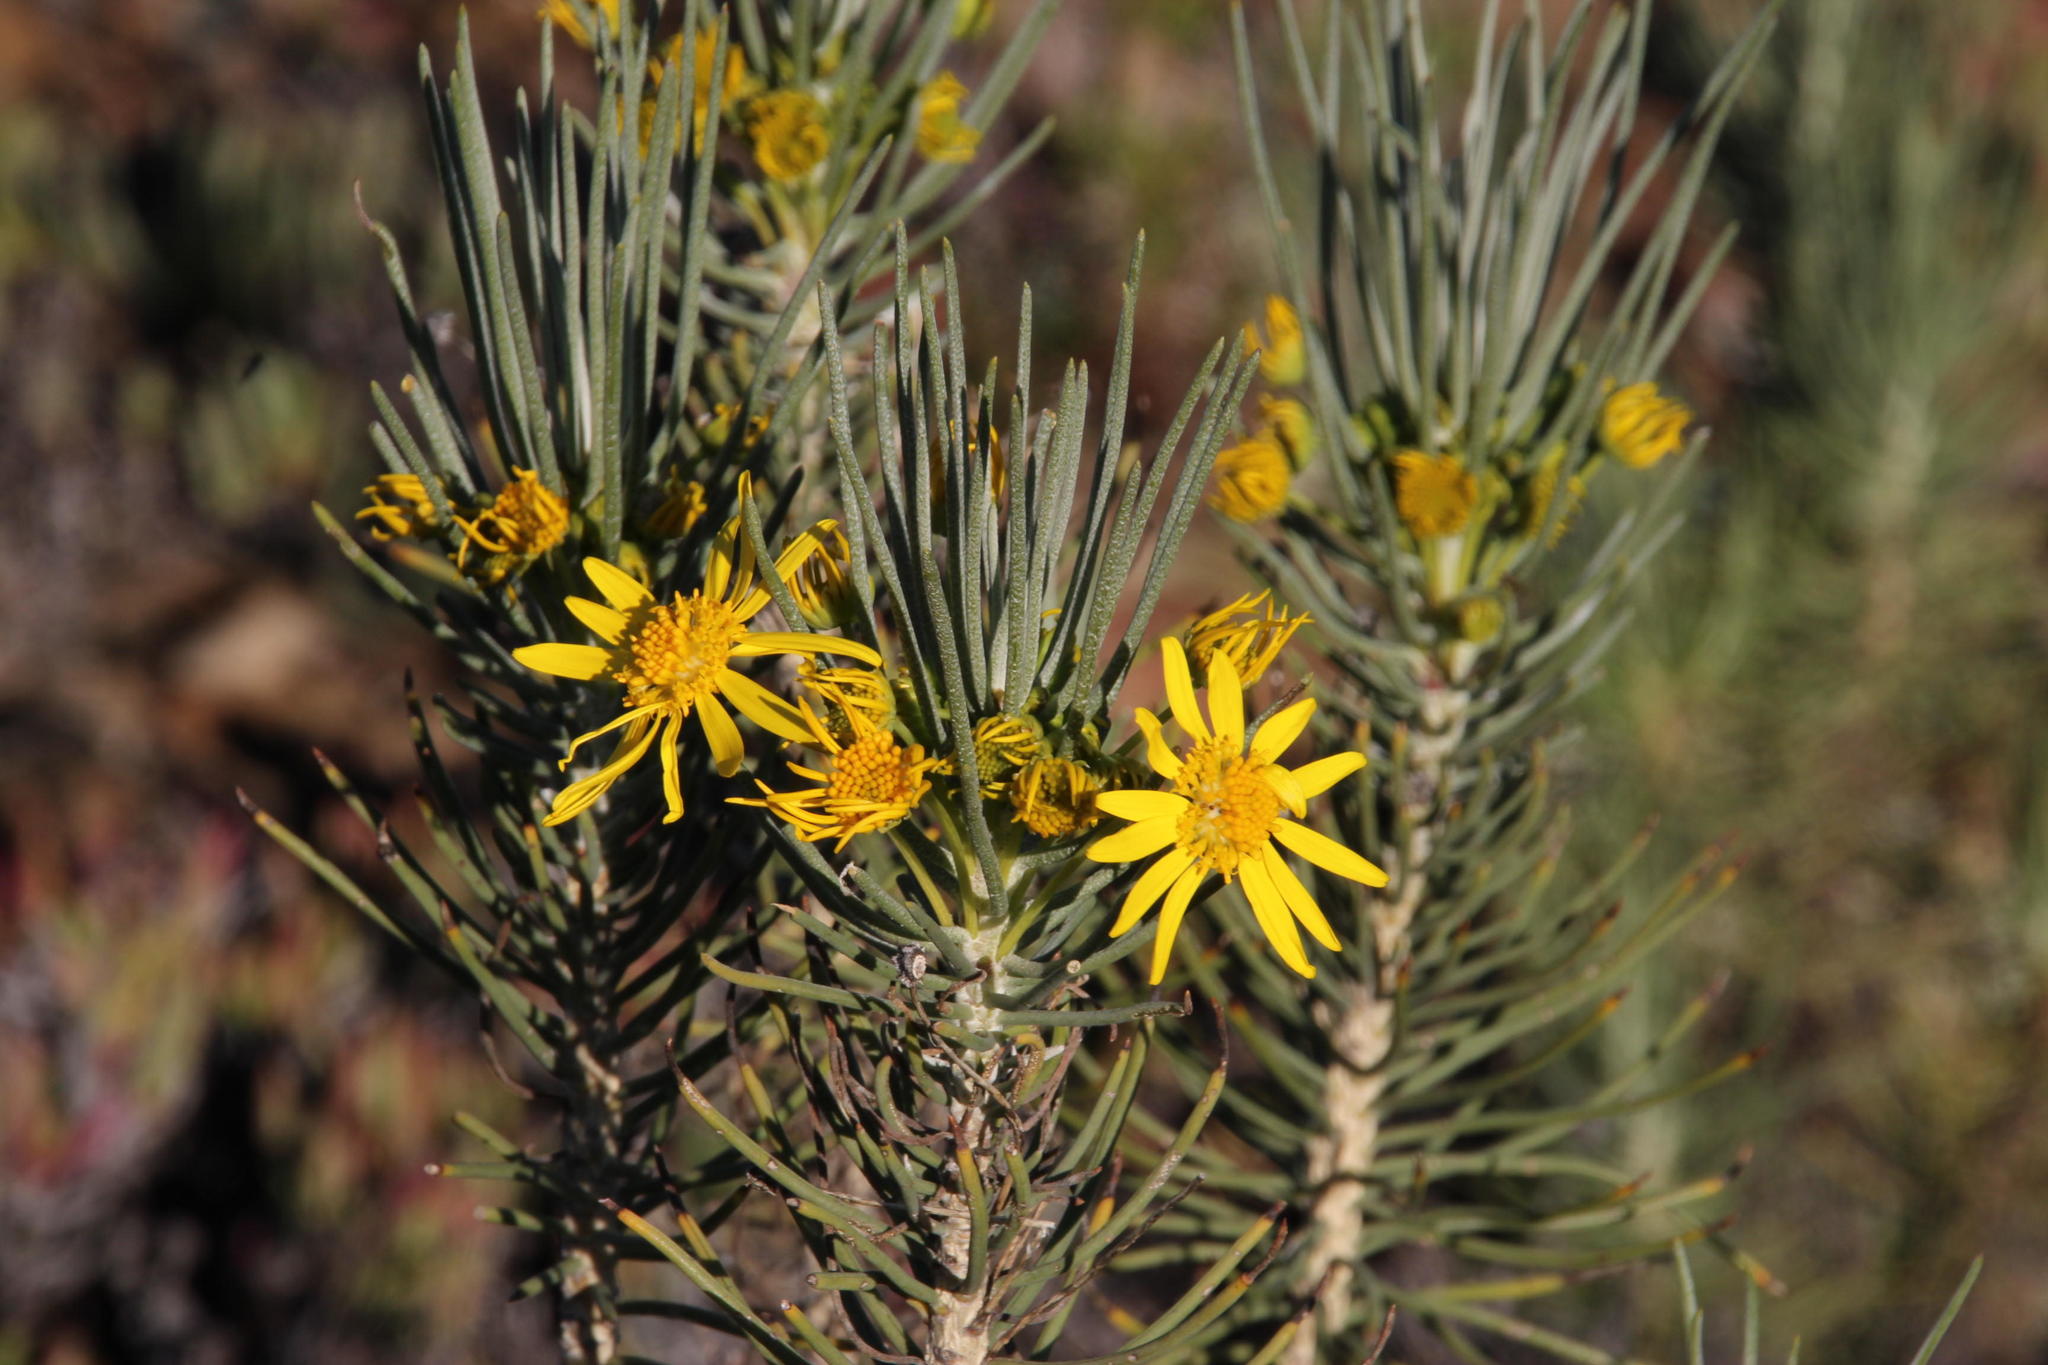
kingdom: Plantae
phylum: Tracheophyta
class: Magnoliopsida
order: Asterales
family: Asteraceae
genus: Euryops
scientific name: Euryops tenuissimus
